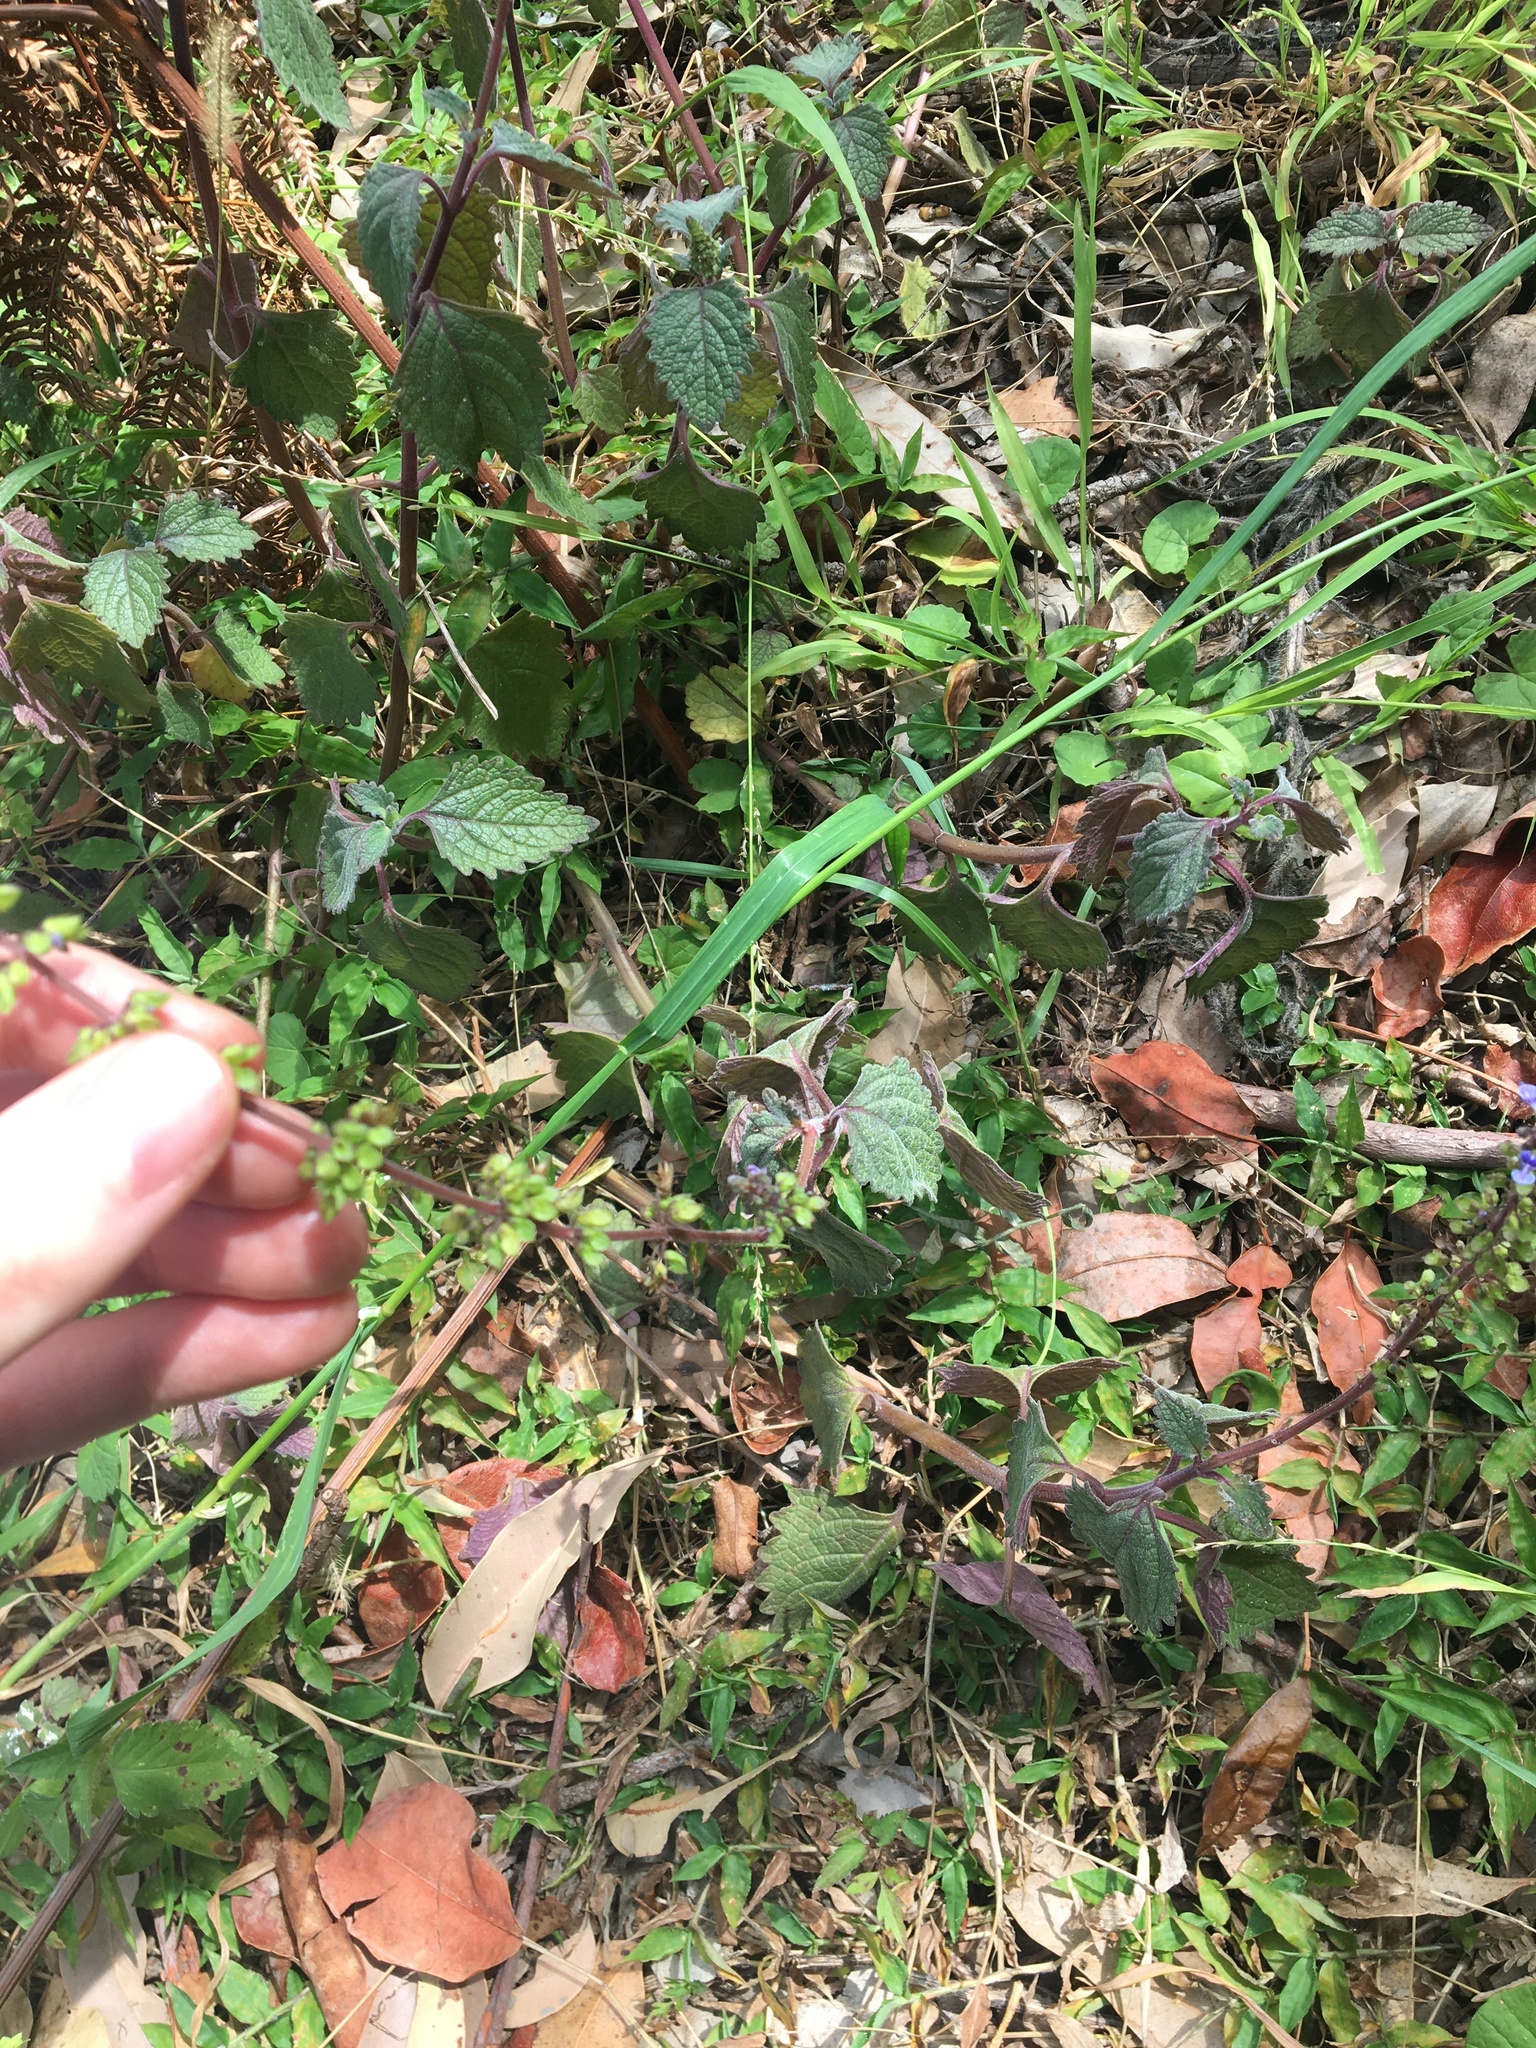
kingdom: Plantae
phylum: Tracheophyta
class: Magnoliopsida
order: Lamiales
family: Lamiaceae
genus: Coleus
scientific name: Coleus australis
